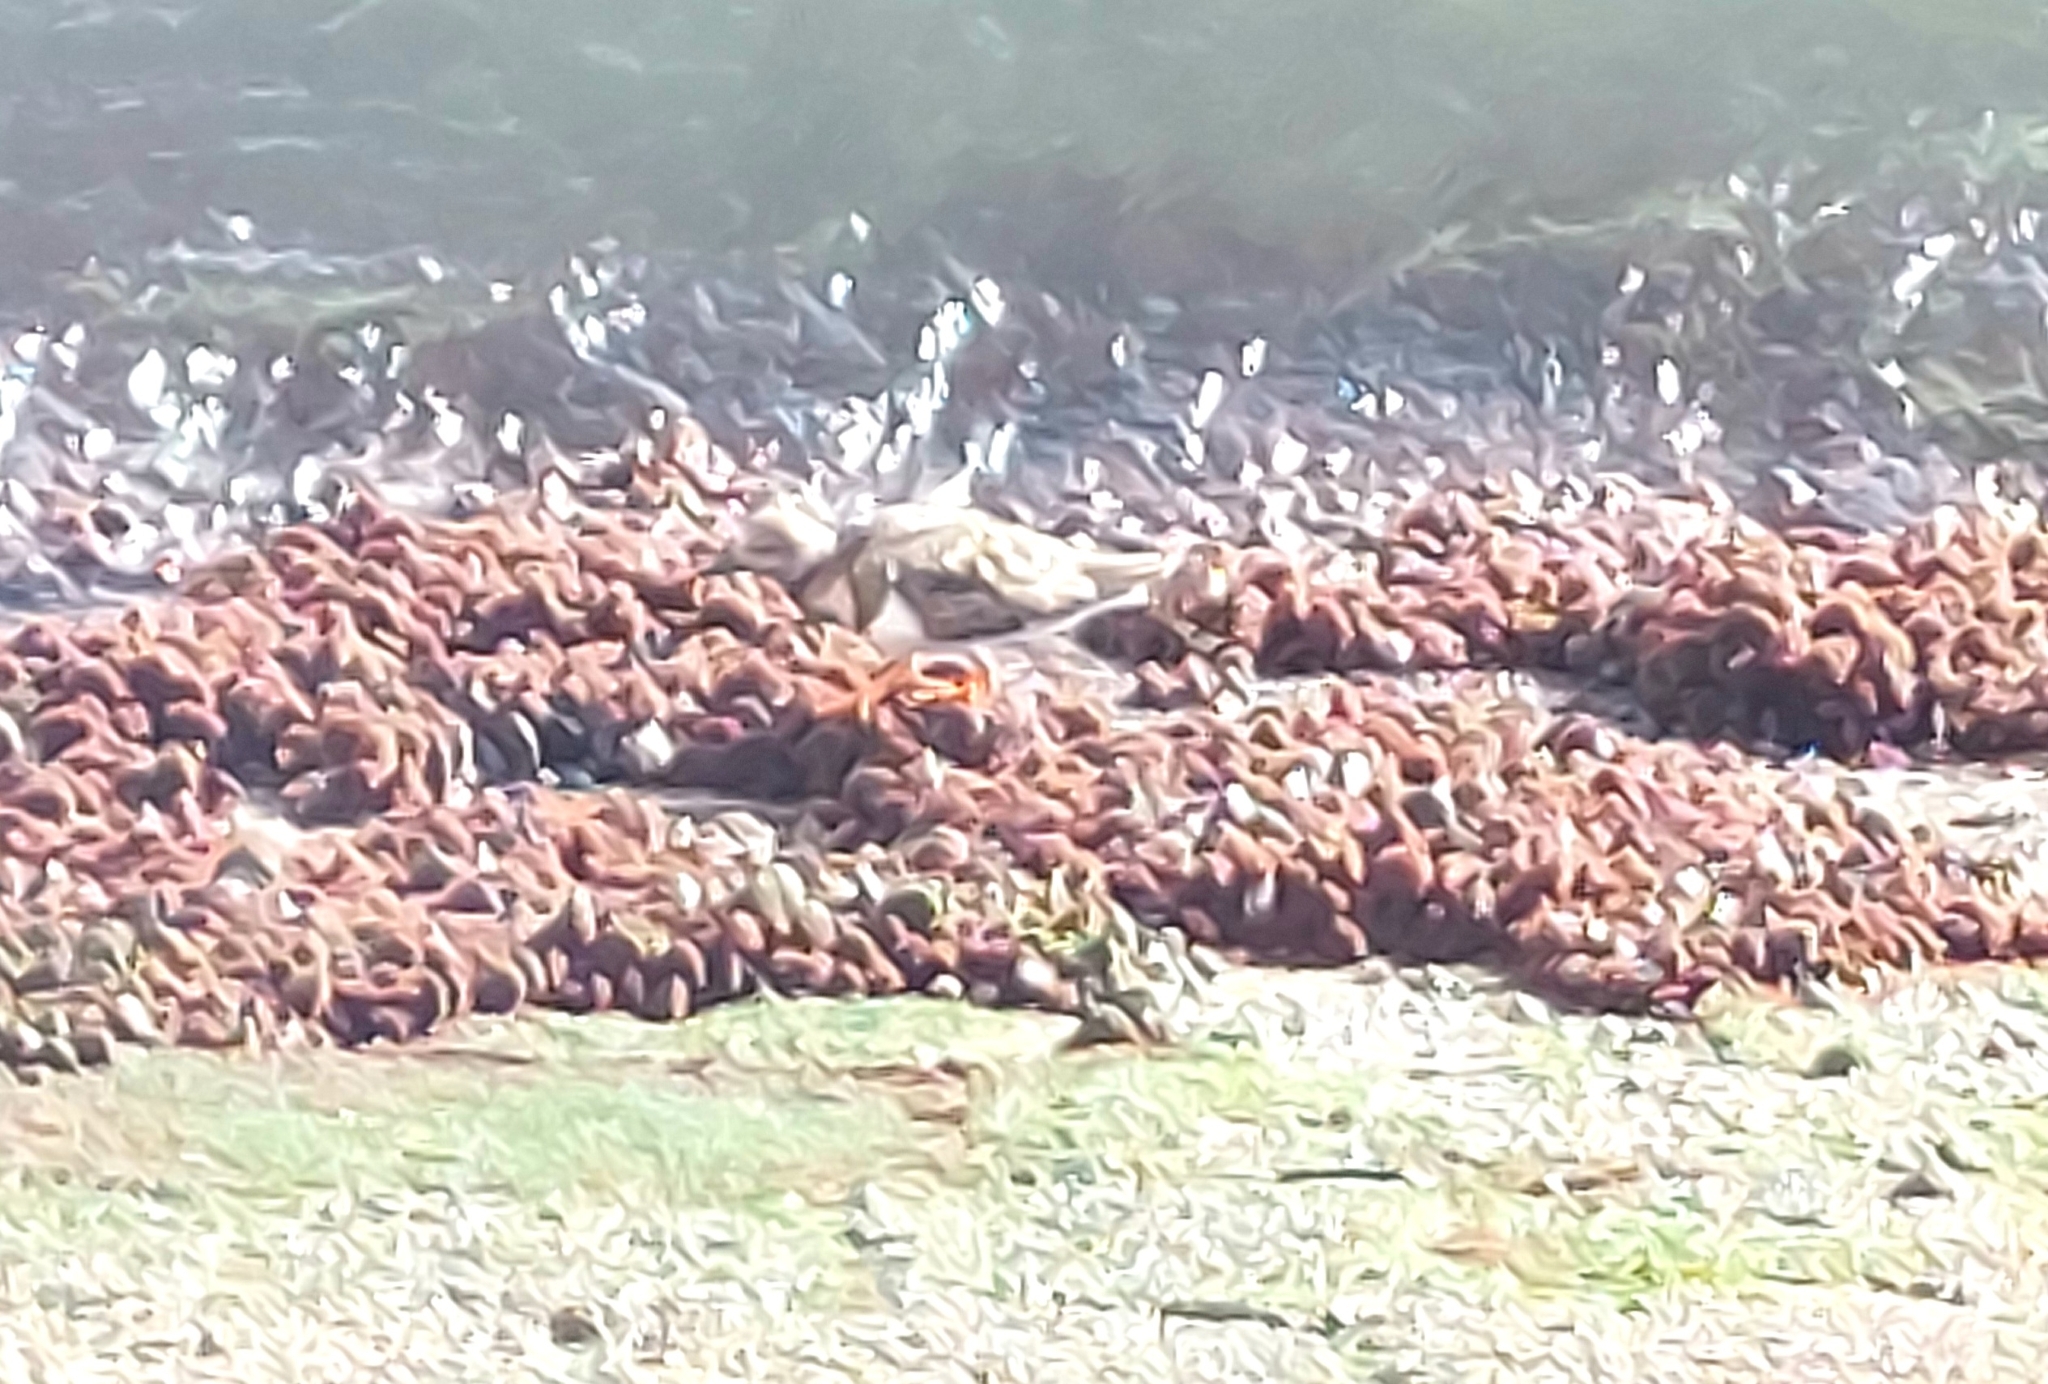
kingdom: Animalia
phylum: Chordata
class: Aves
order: Charadriiformes
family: Scolopacidae
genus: Arenaria
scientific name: Arenaria interpres
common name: Ruddy turnstone
